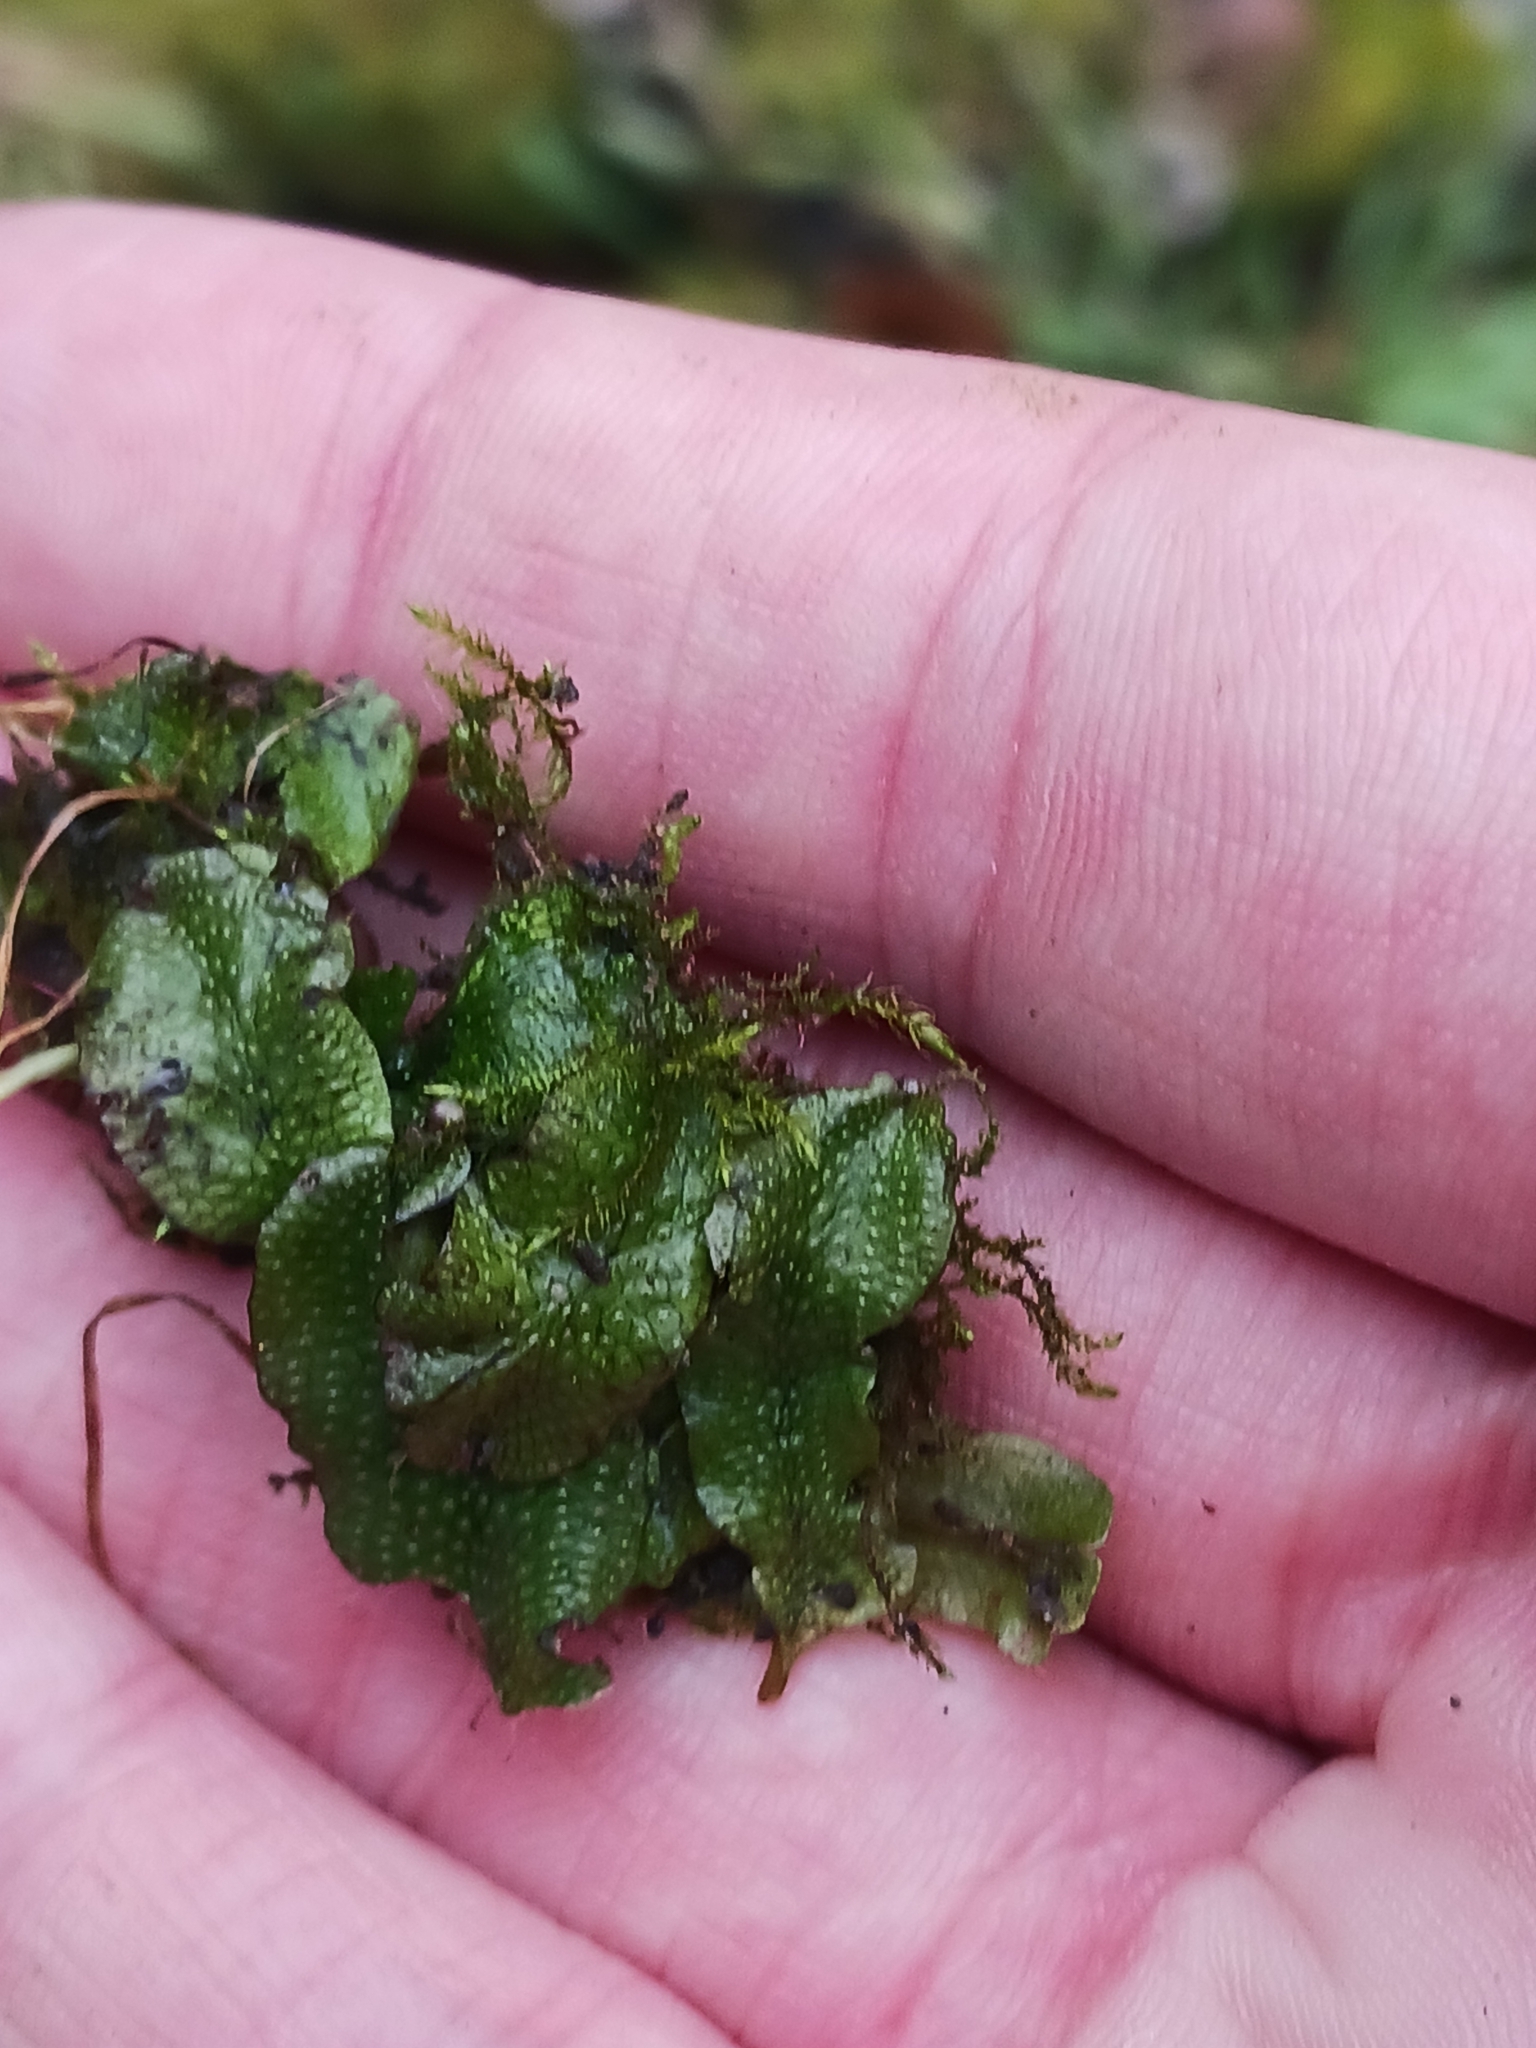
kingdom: Plantae
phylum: Marchantiophyta
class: Marchantiopsida
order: Marchantiales
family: Conocephalaceae
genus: Conocephalum
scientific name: Conocephalum
